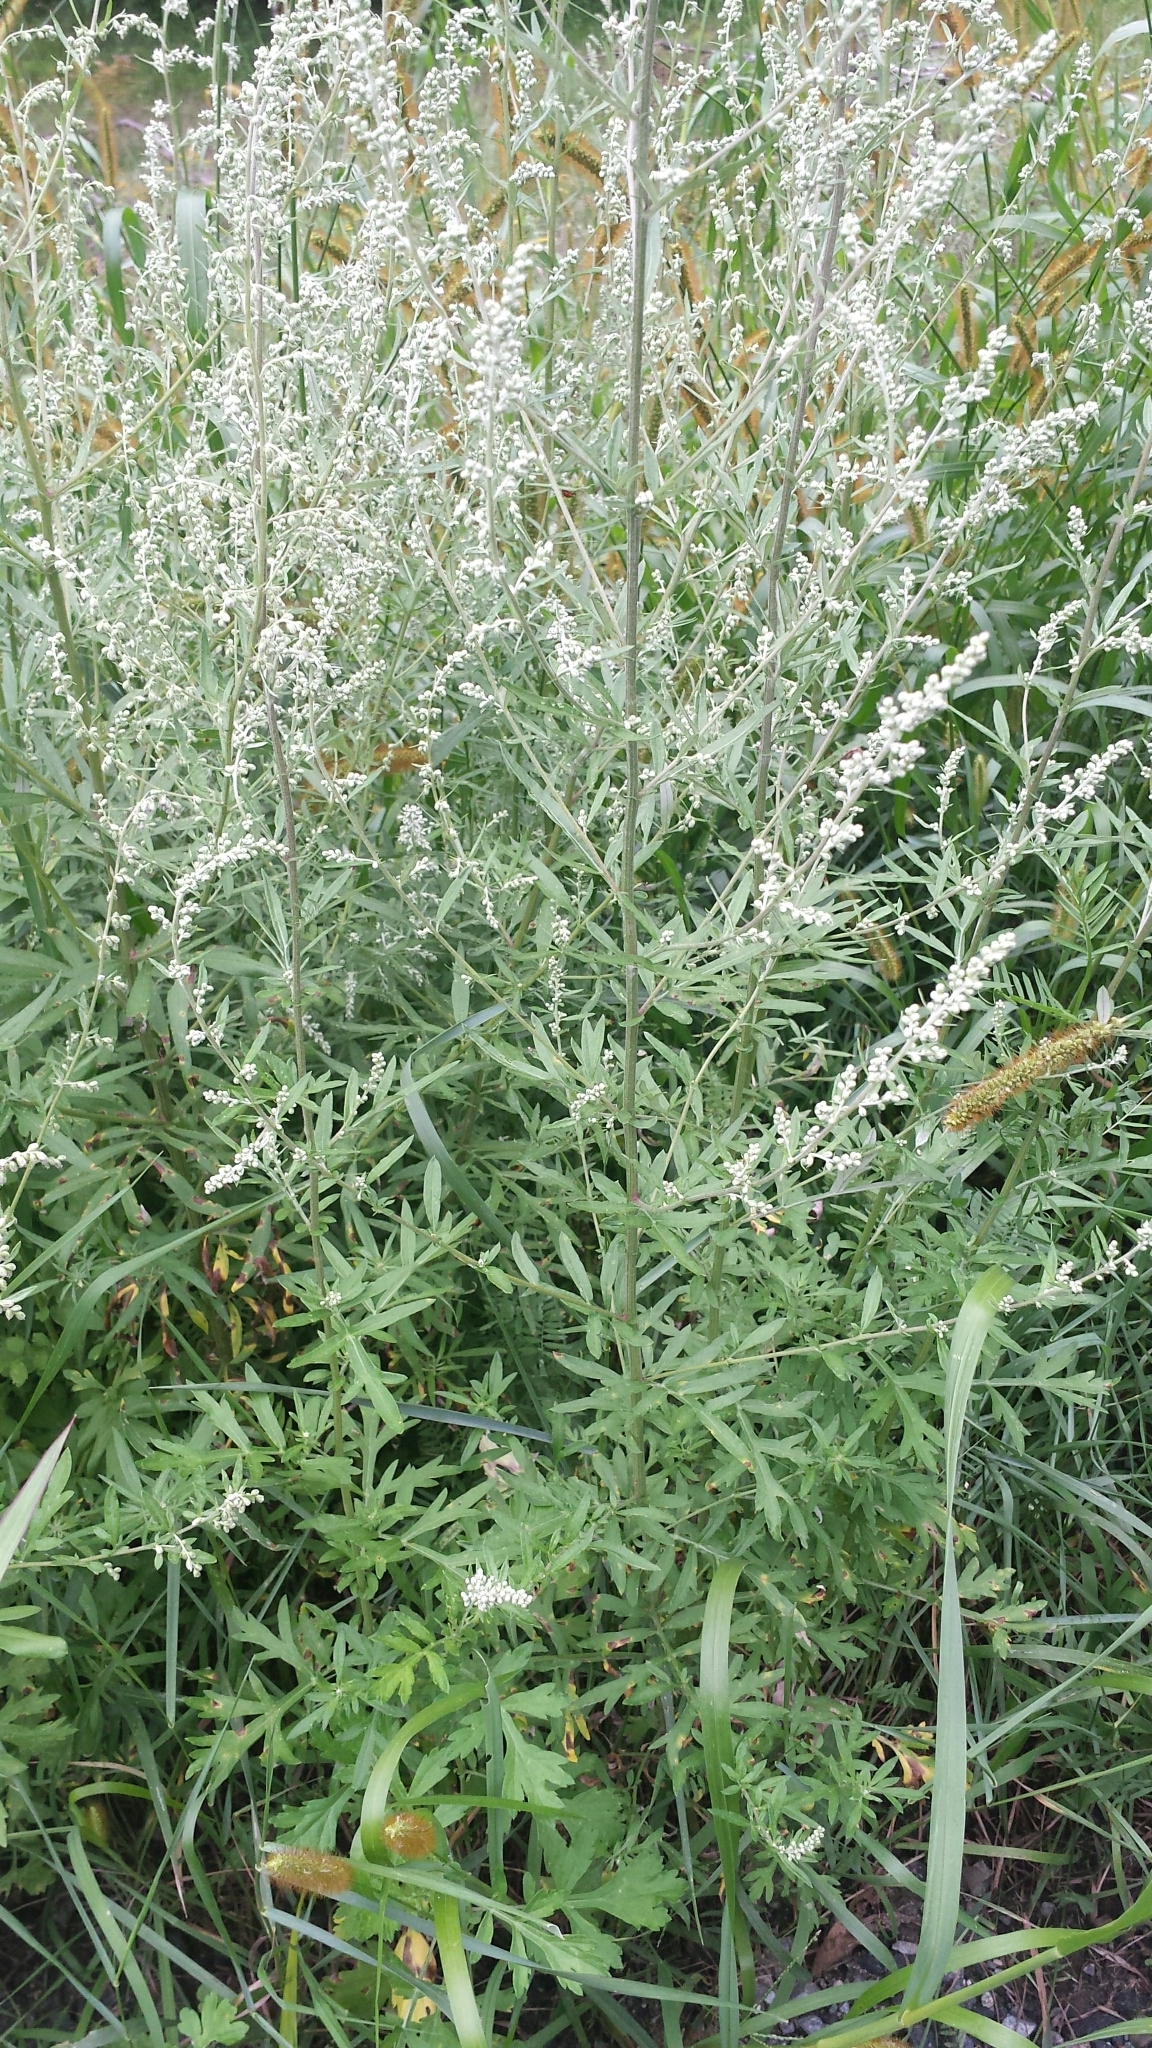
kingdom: Plantae
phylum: Tracheophyta
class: Magnoliopsida
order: Asterales
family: Asteraceae
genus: Artemisia
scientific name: Artemisia vulgaris
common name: Mugwort
